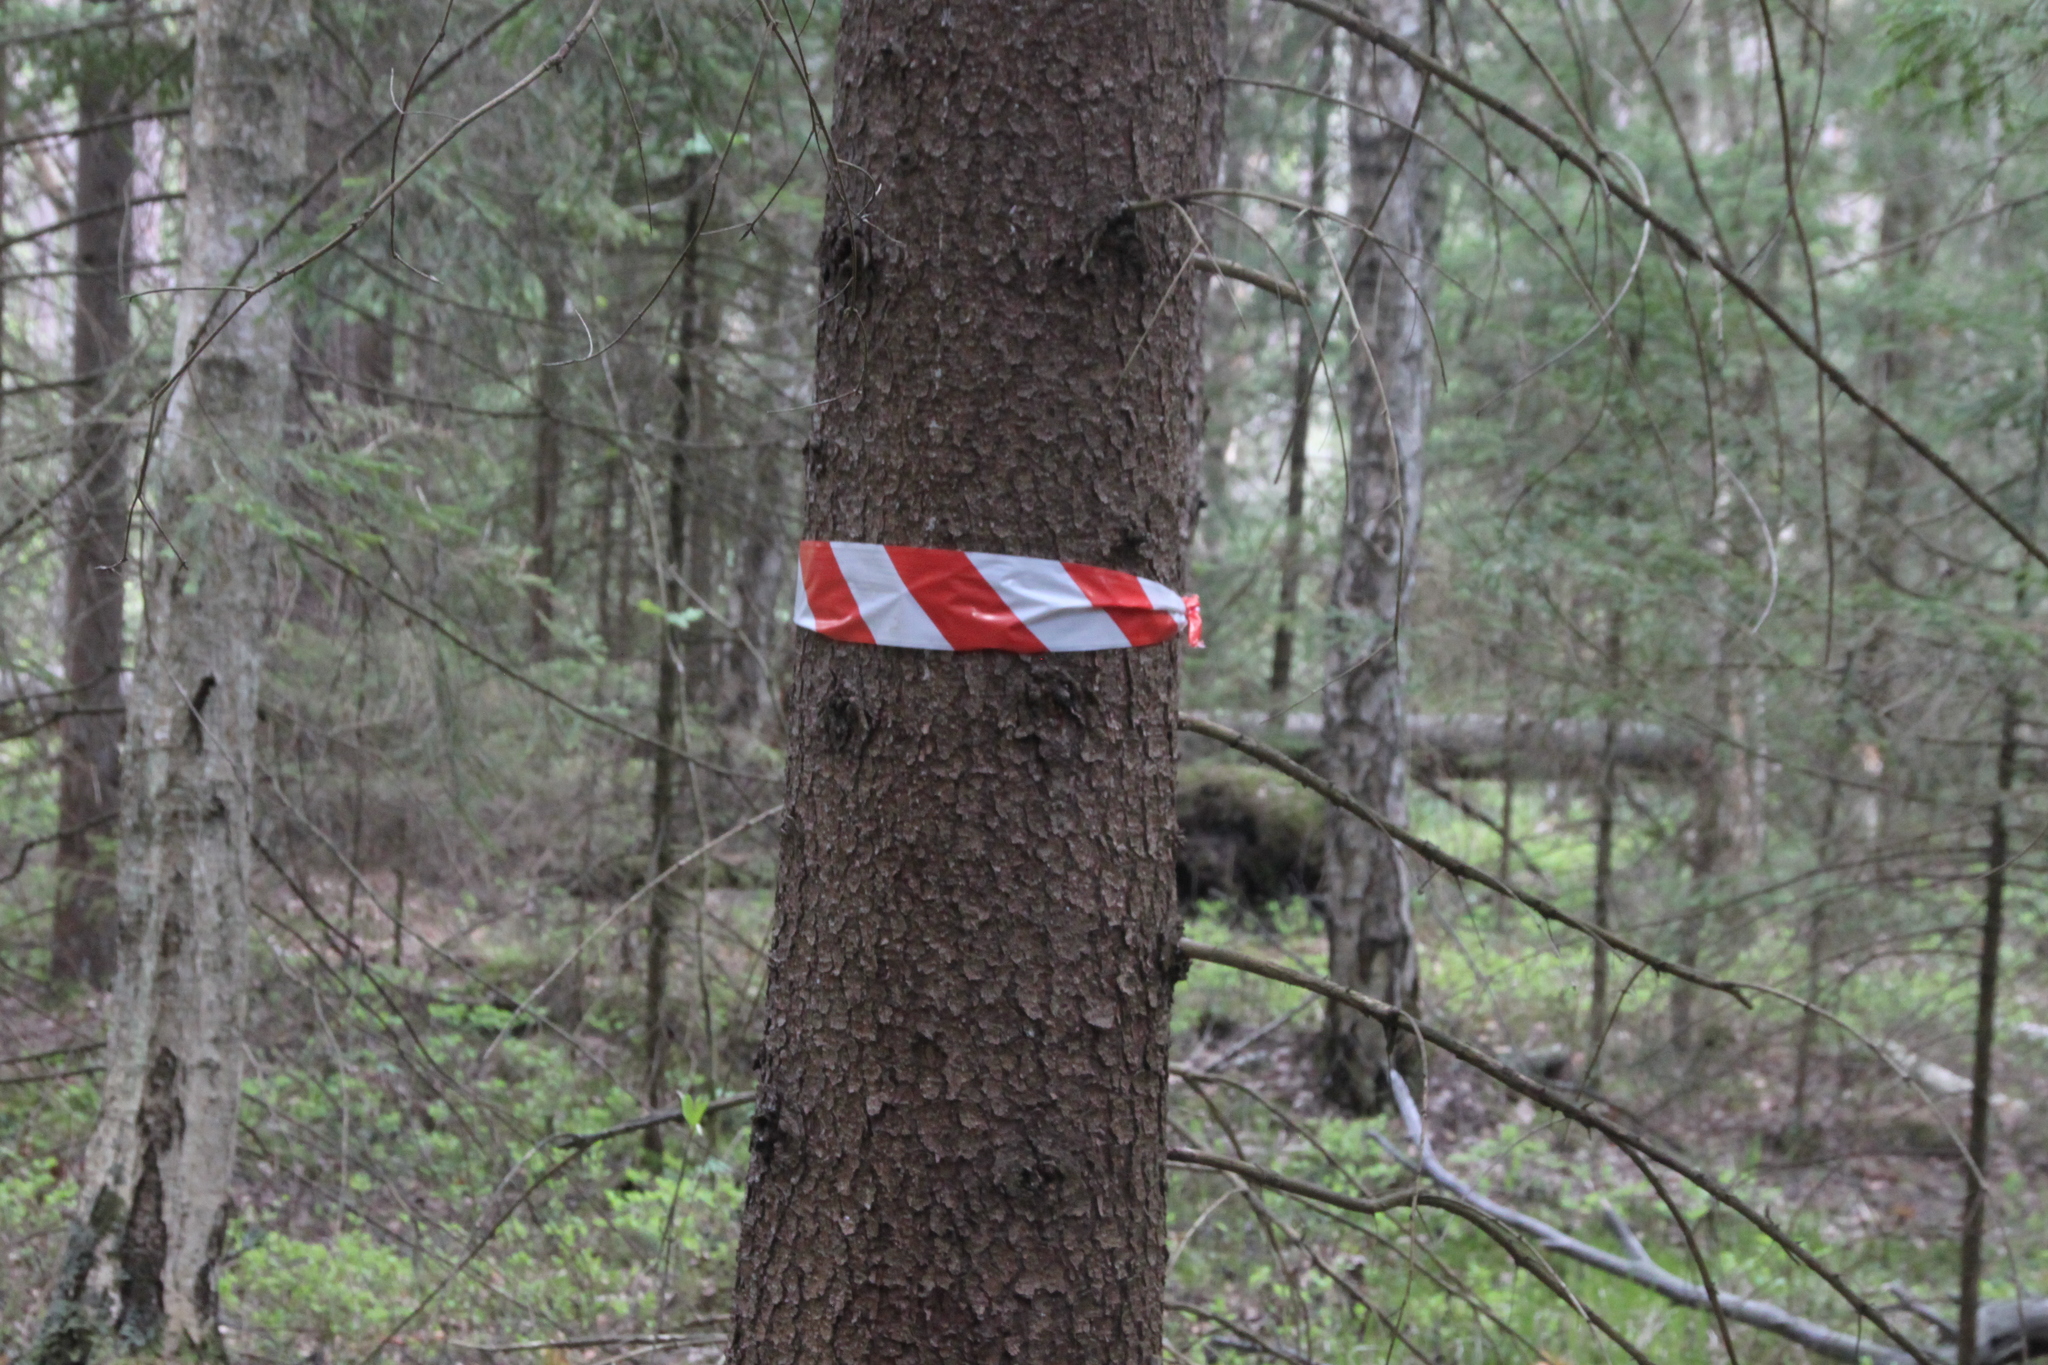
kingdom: Plantae
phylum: Tracheophyta
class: Pinopsida
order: Pinales
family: Pinaceae
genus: Picea
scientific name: Picea abies
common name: Norway spruce
